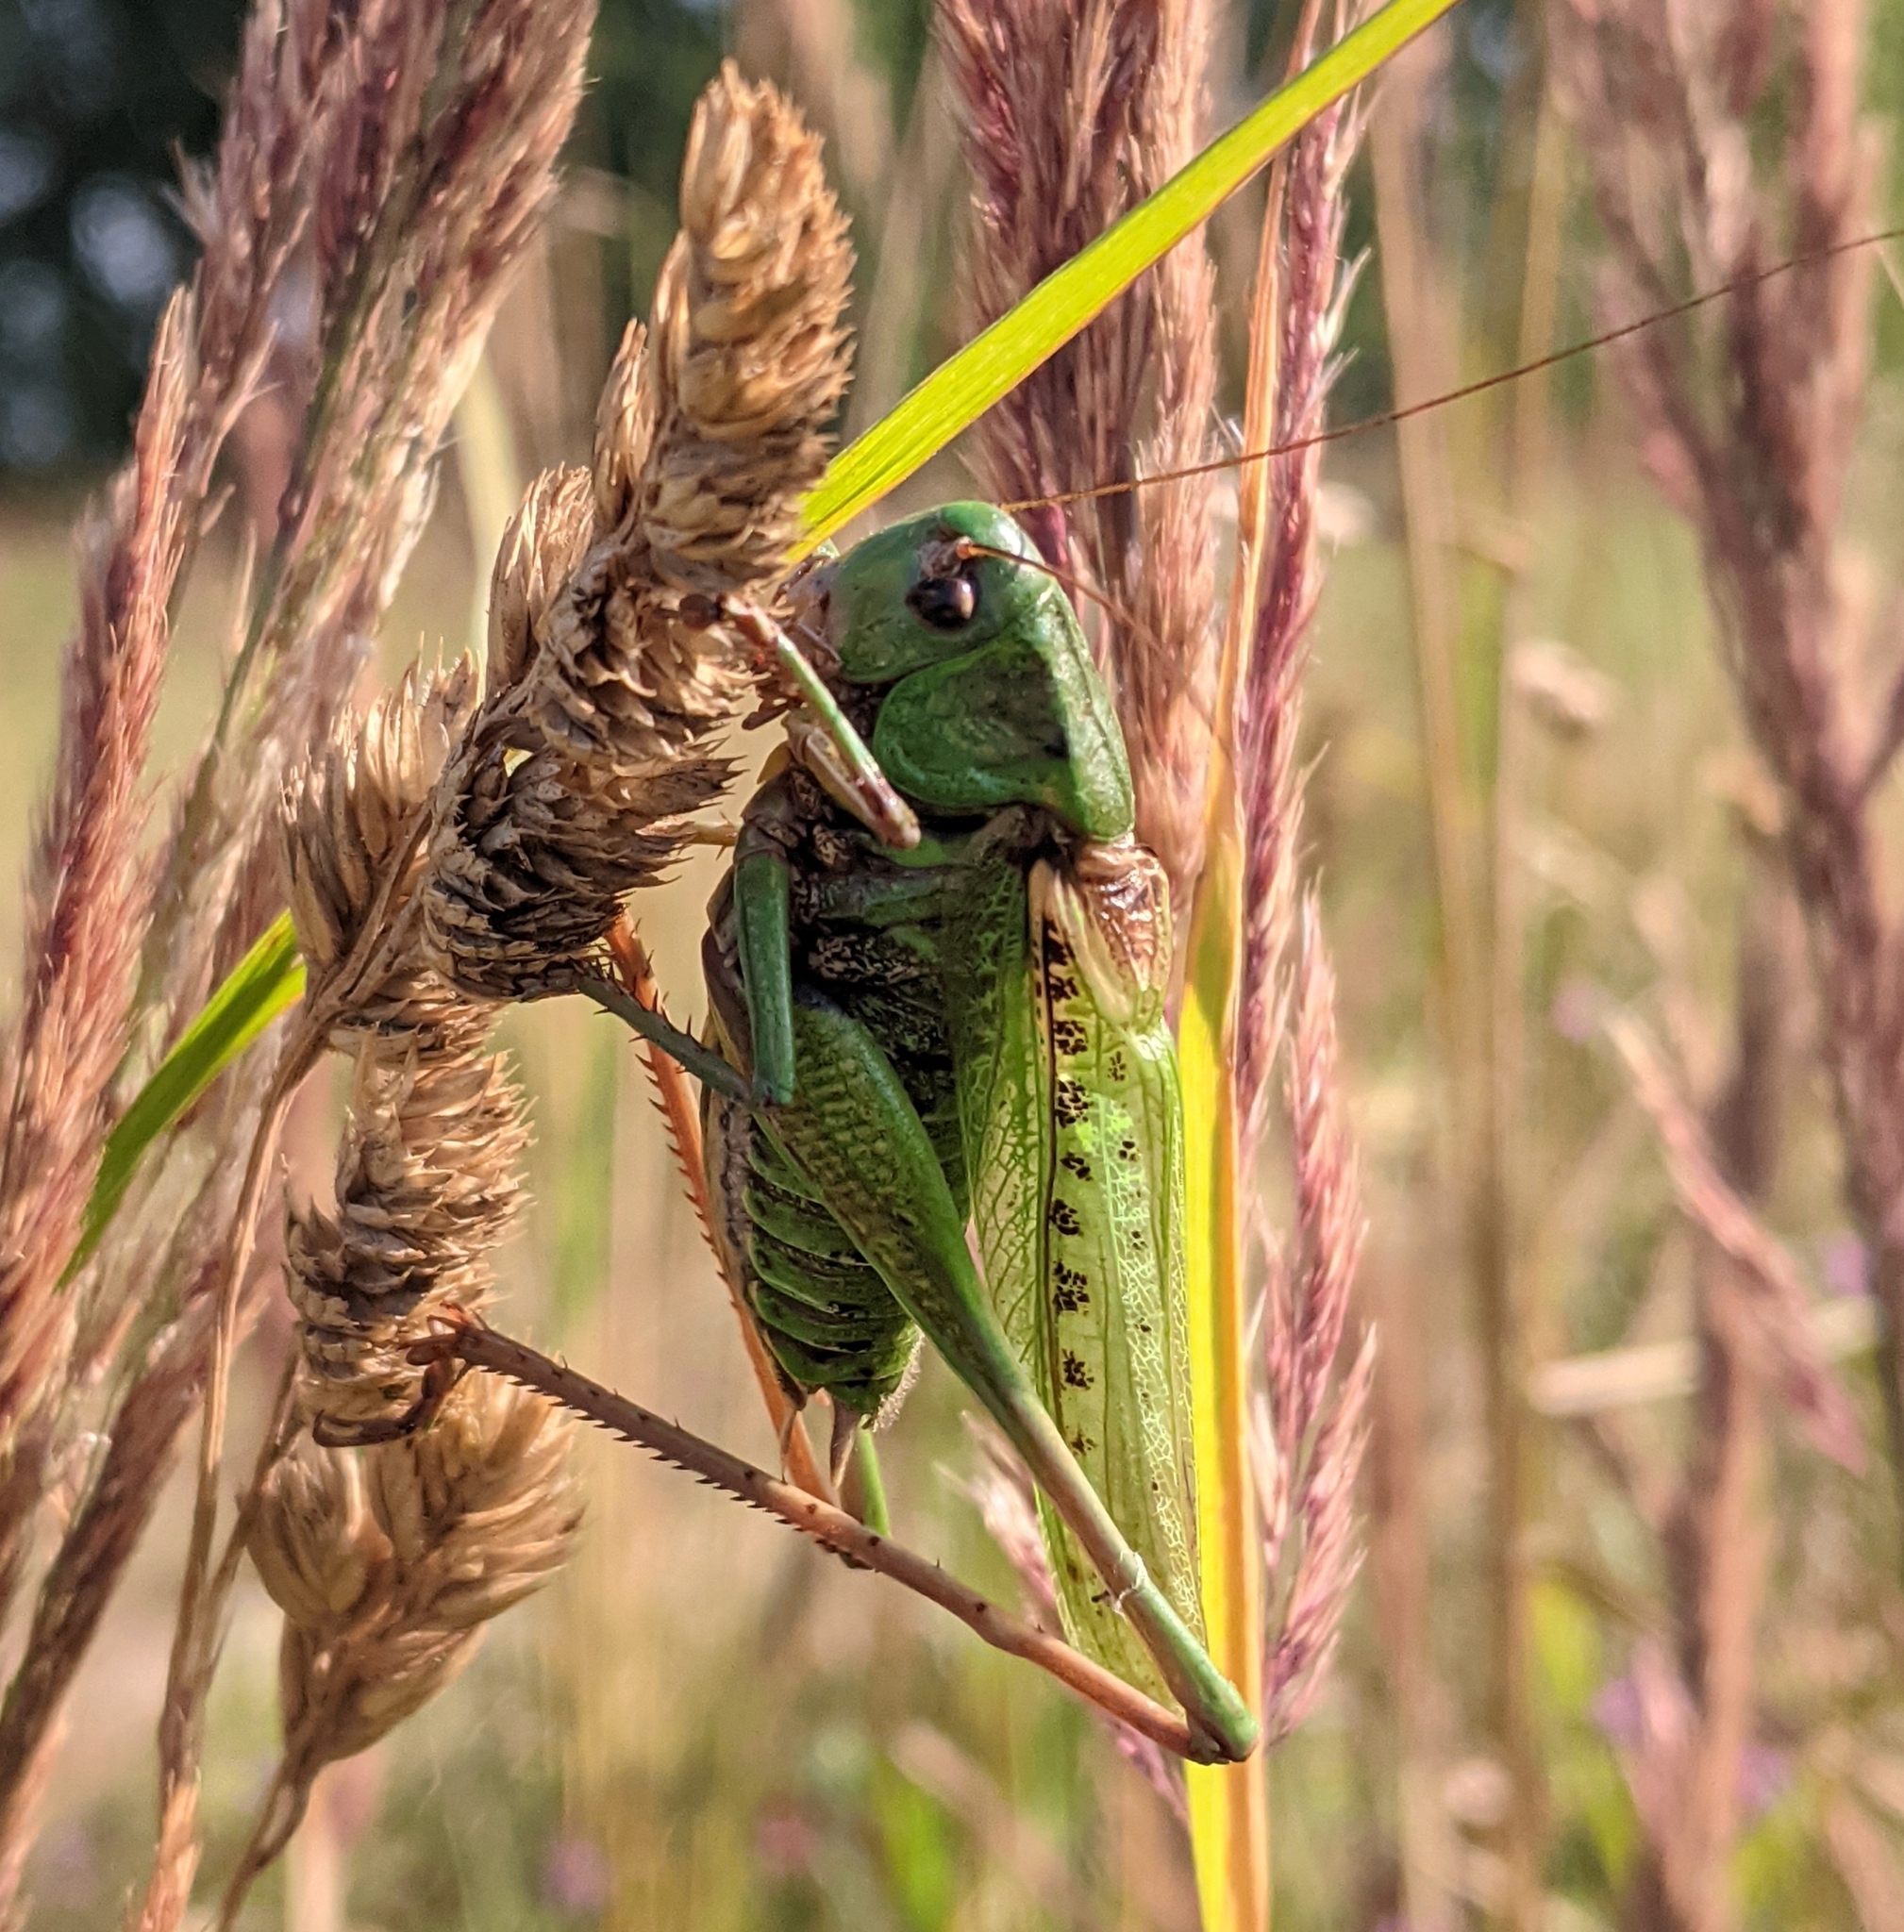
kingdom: Animalia
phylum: Arthropoda
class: Insecta
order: Orthoptera
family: Tettigoniidae
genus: Decticus
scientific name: Decticus verrucivorus
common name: Wart-biter
